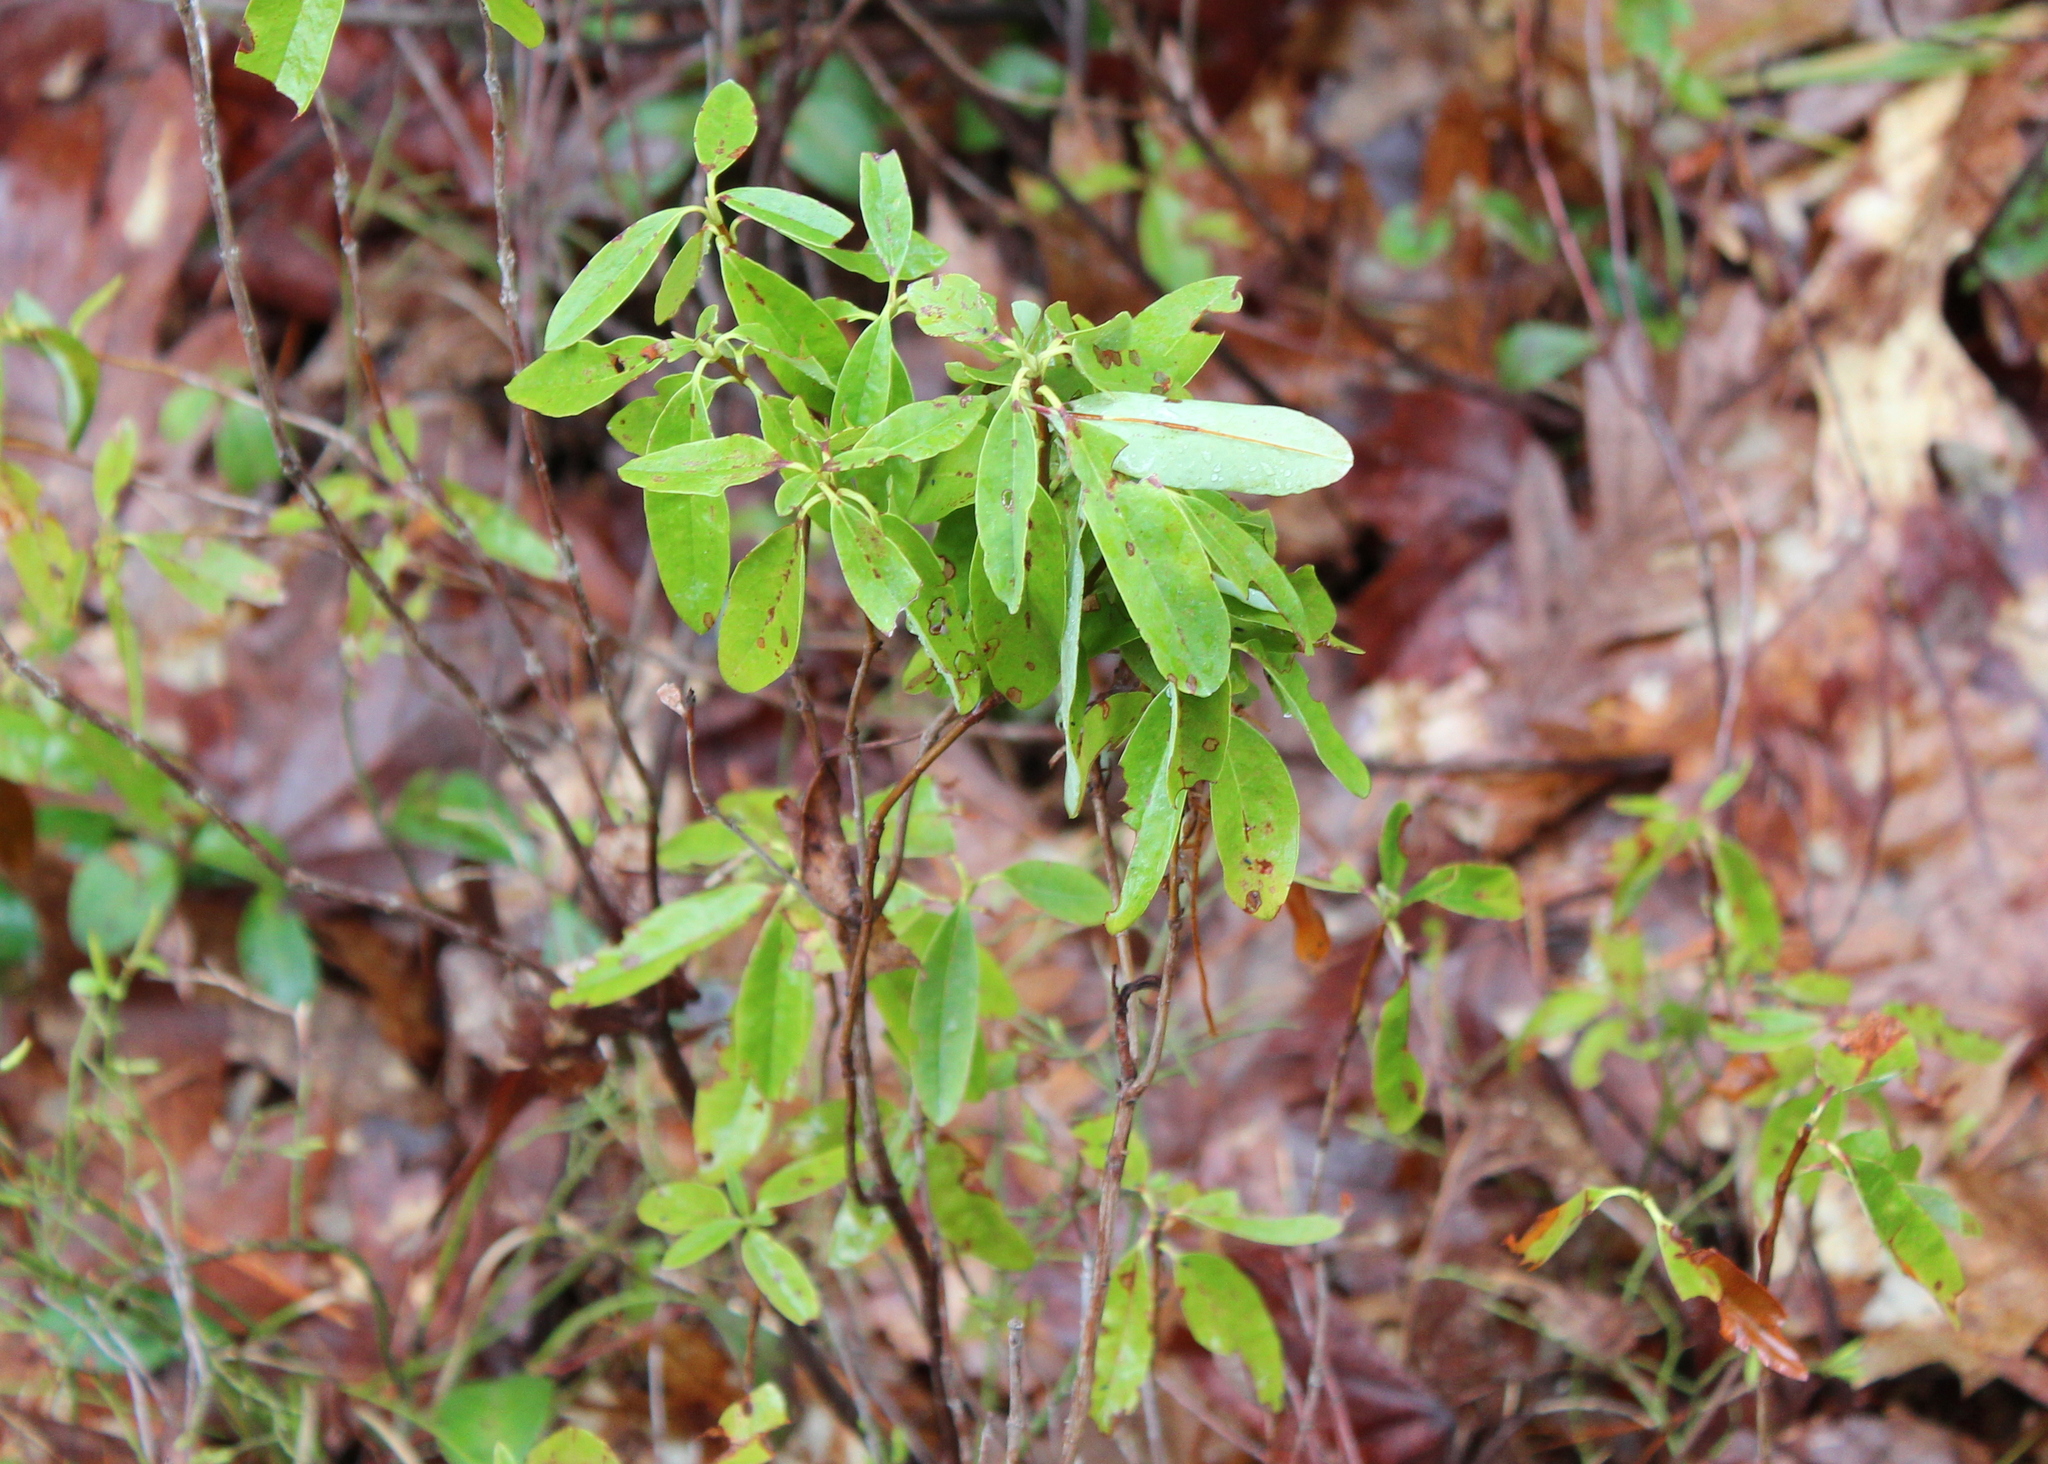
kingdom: Plantae
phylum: Tracheophyta
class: Magnoliopsida
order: Ericales
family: Ericaceae
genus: Kalmia
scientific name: Kalmia angustifolia
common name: Sheep-laurel
